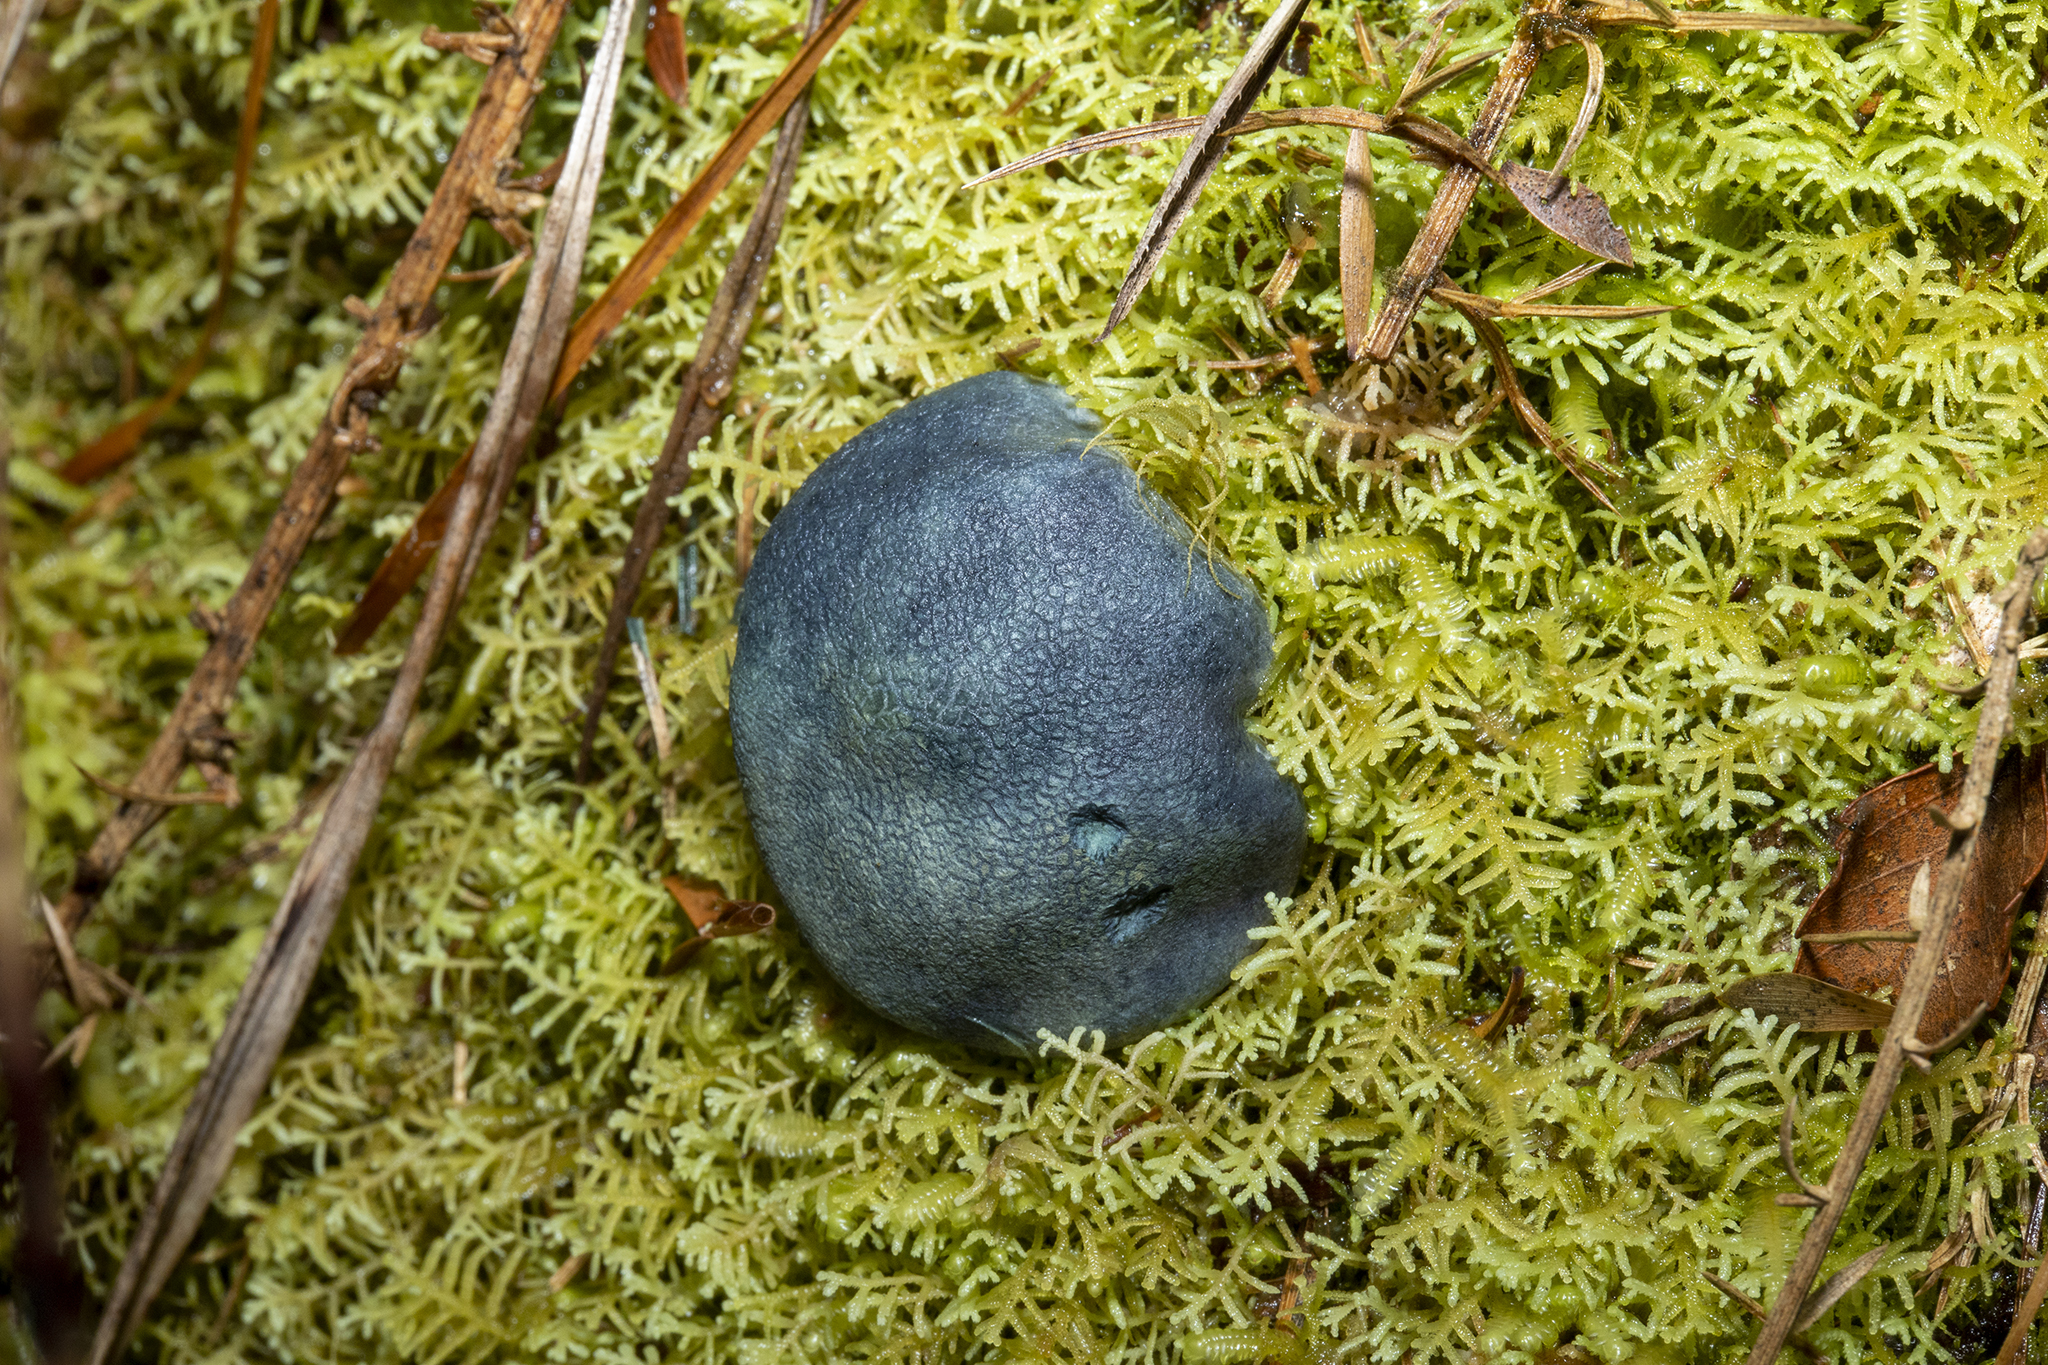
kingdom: Fungi
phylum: Basidiomycota
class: Agaricomycetes
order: Boletales
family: Boletaceae
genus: Leccinum
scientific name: Leccinum pachyderme
